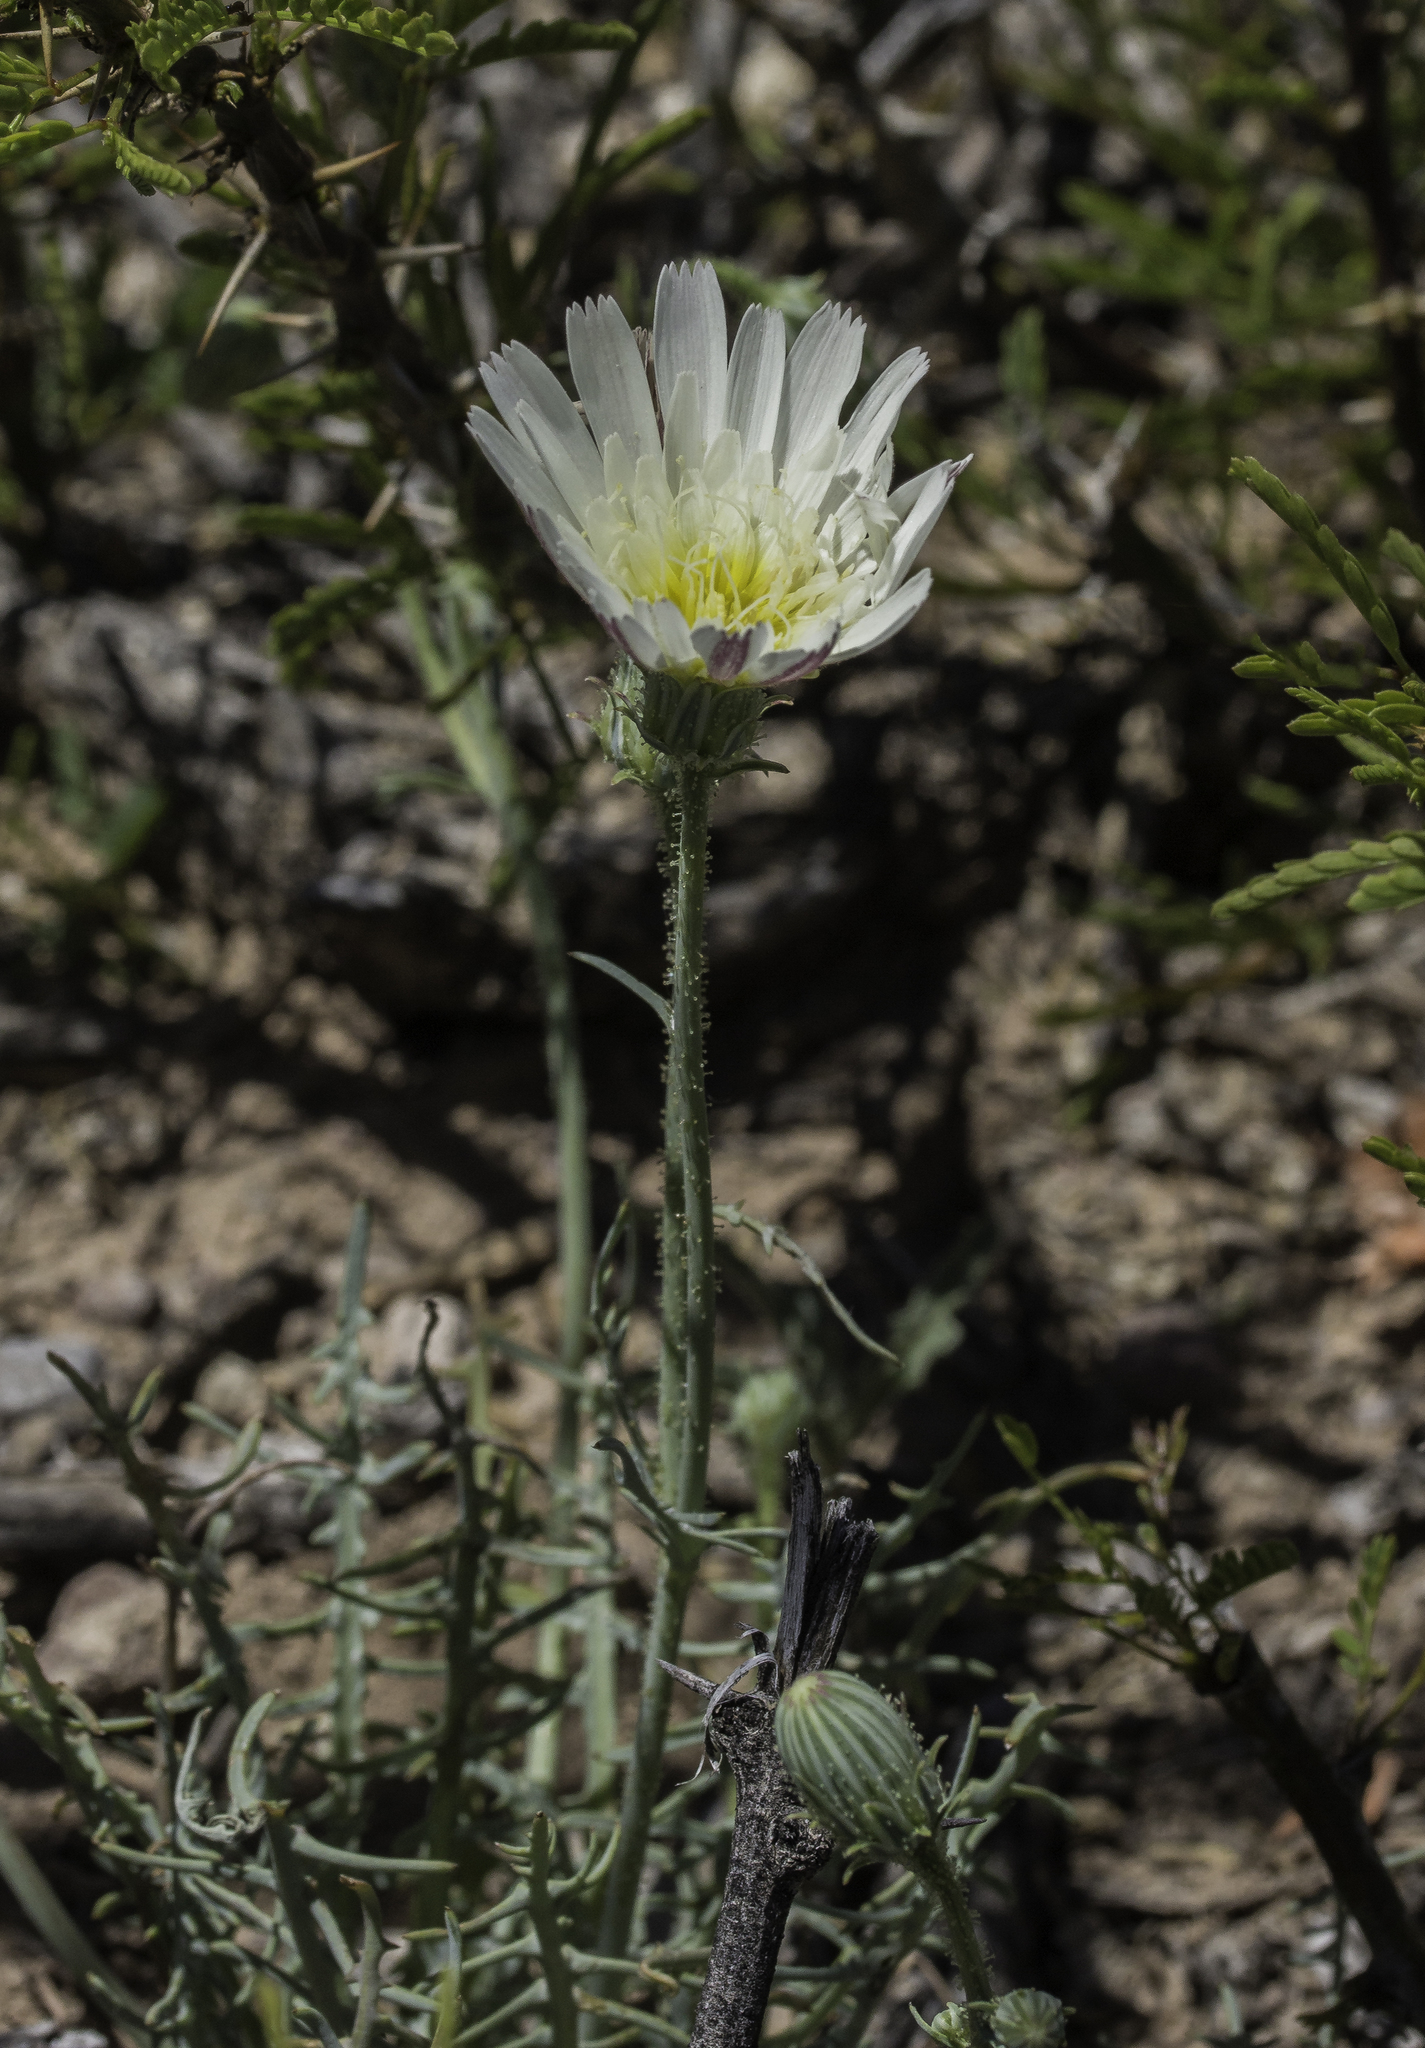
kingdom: Plantae
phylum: Tracheophyta
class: Magnoliopsida
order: Asterales
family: Asteraceae
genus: Calycoseris
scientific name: Calycoseris wrightii
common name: White tackstem
